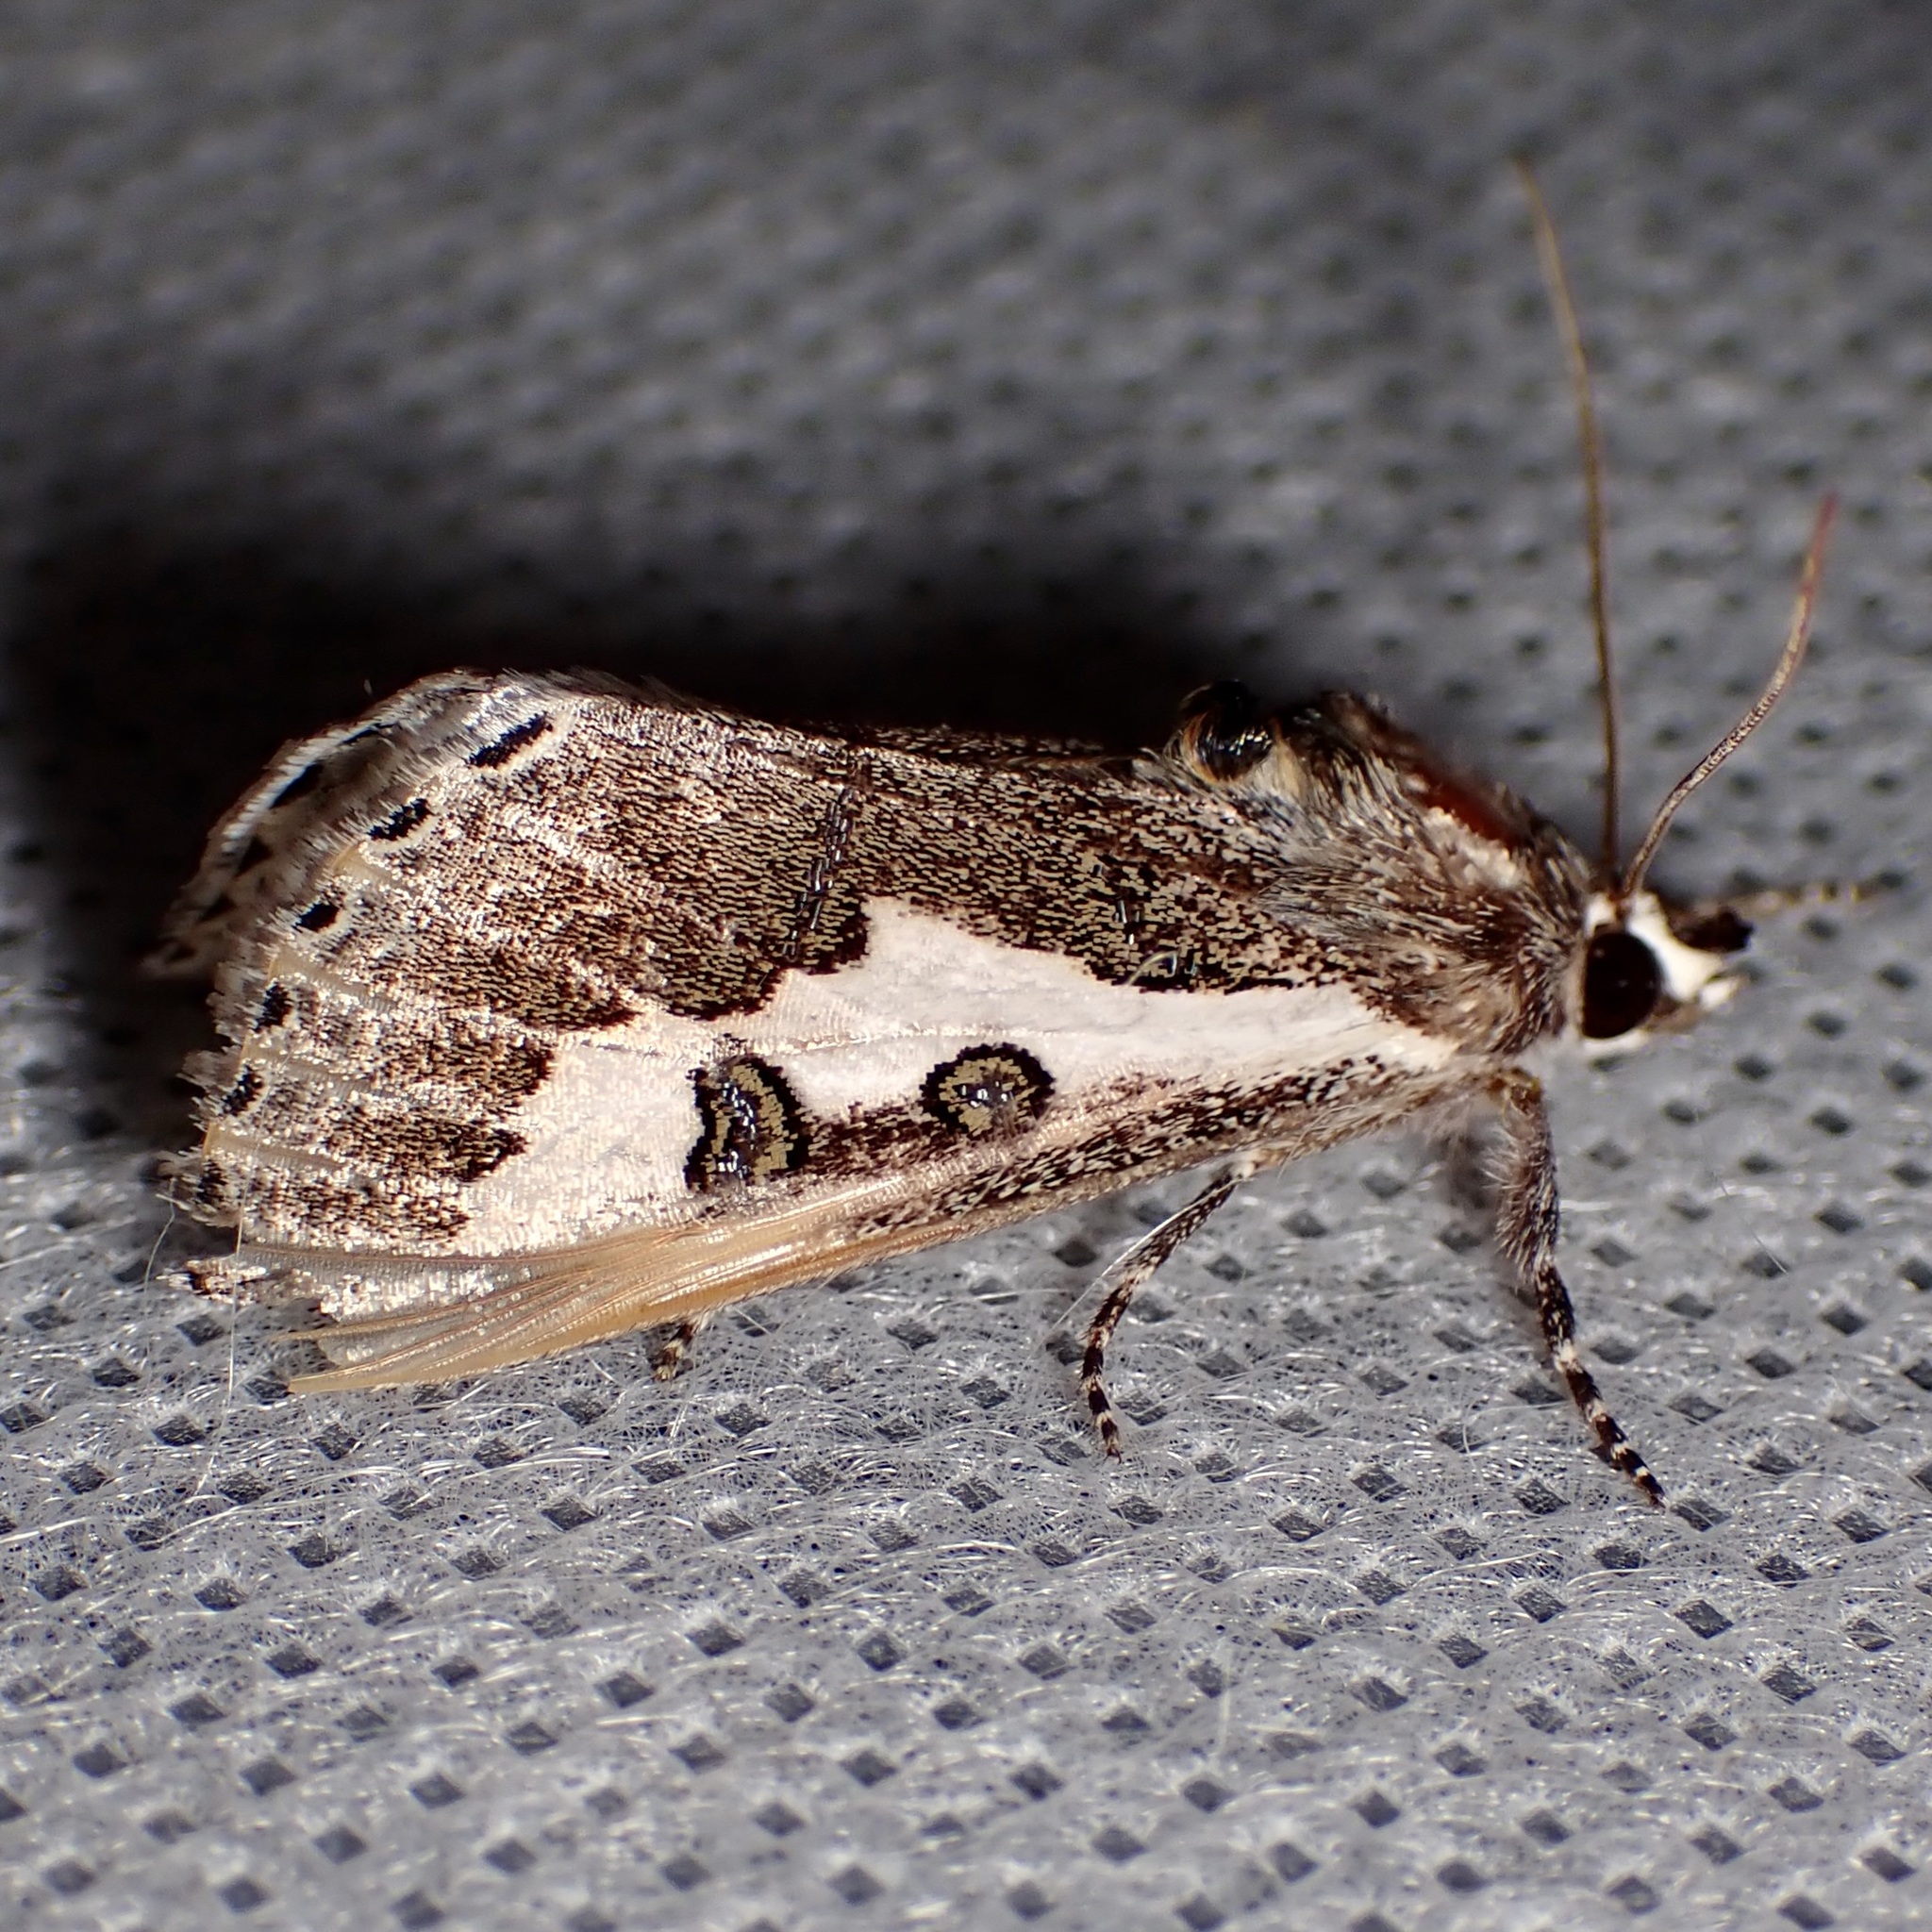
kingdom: Animalia
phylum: Arthropoda
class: Insecta
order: Lepidoptera
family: Noctuidae
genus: Euscirrhopterus
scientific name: Euscirrhopterus gloveri
